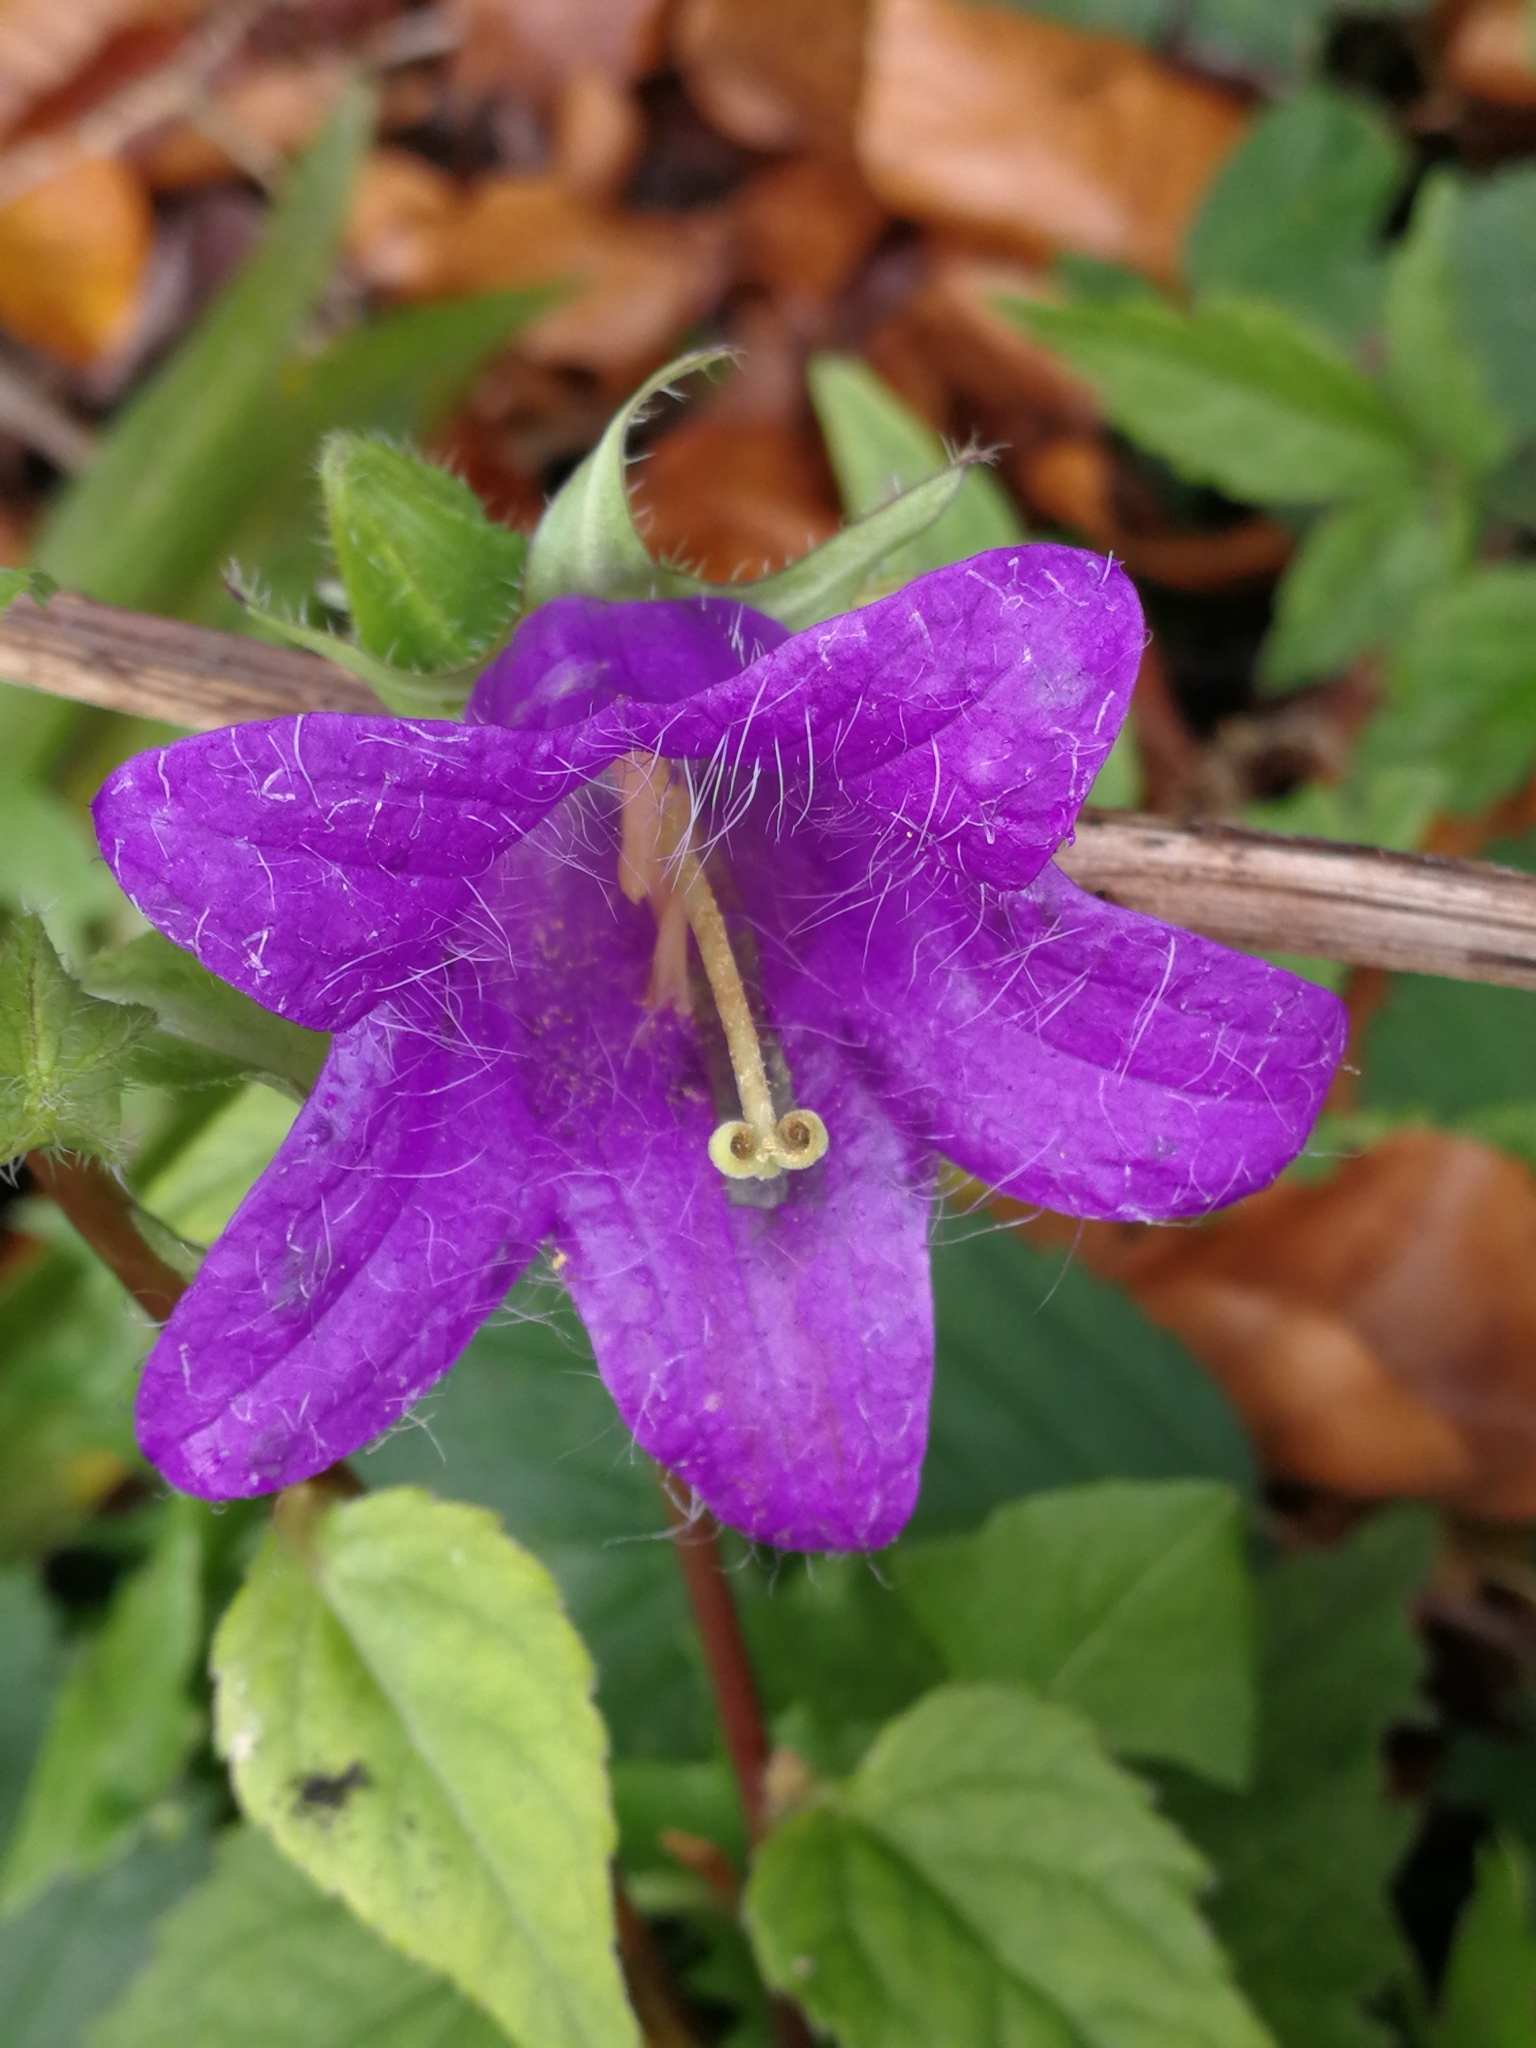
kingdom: Plantae
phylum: Tracheophyta
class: Magnoliopsida
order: Asterales
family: Campanulaceae
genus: Campanula
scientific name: Campanula trachelium
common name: Nettle-leaved bellflower
